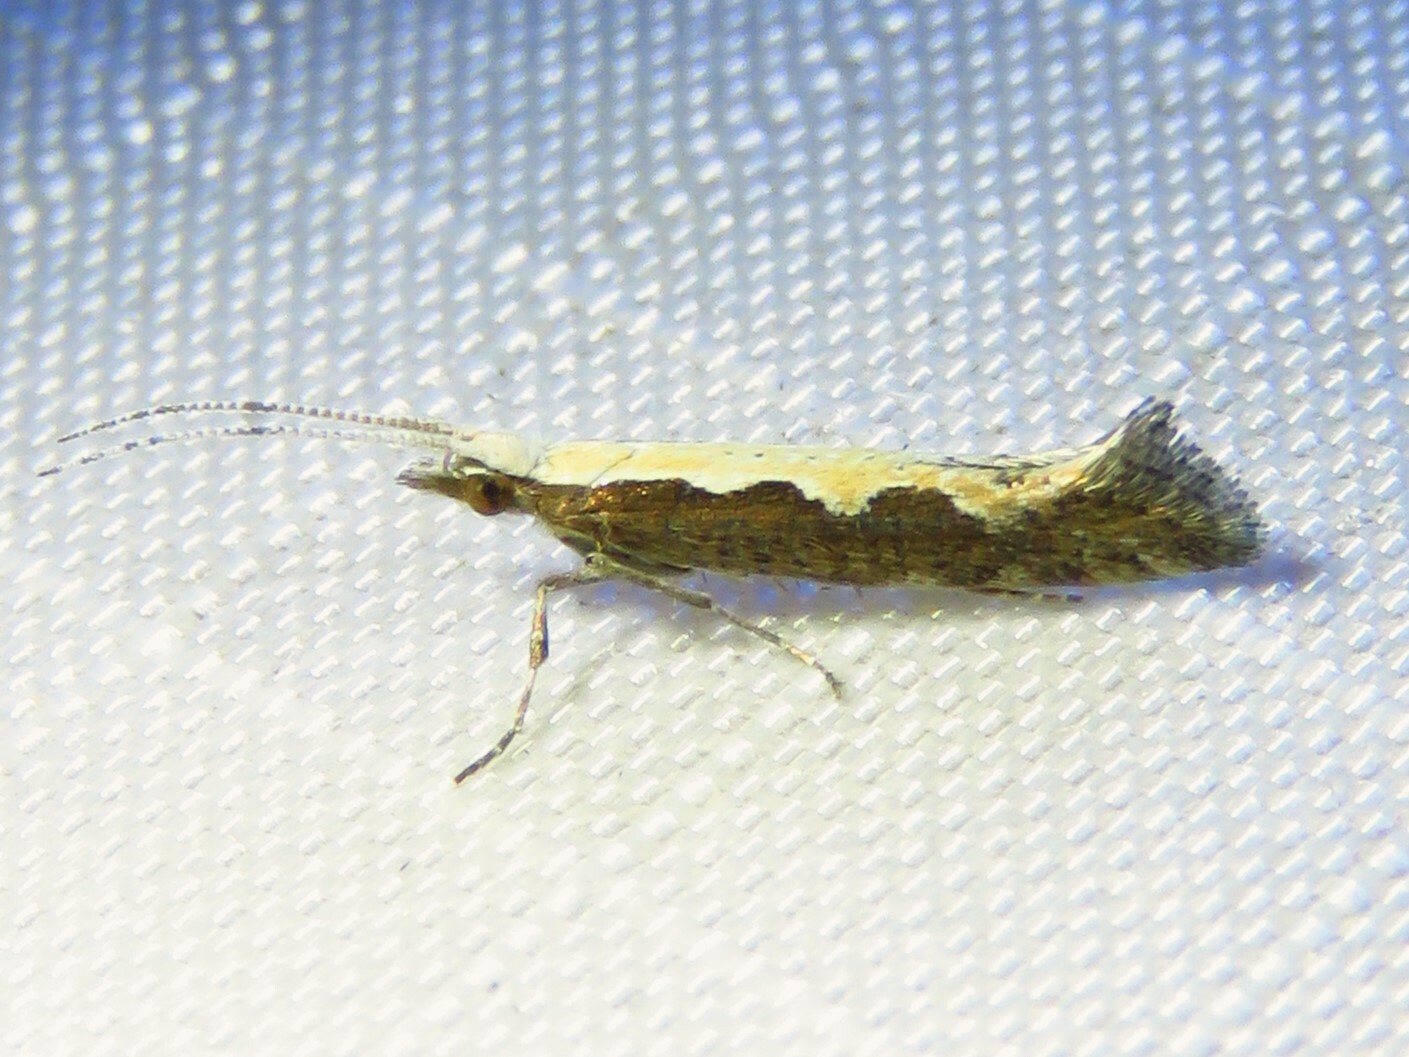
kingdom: Animalia
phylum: Arthropoda
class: Insecta
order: Lepidoptera
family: Plutellidae
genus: Plutella
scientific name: Plutella xylostella
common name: Diamond-back moth
